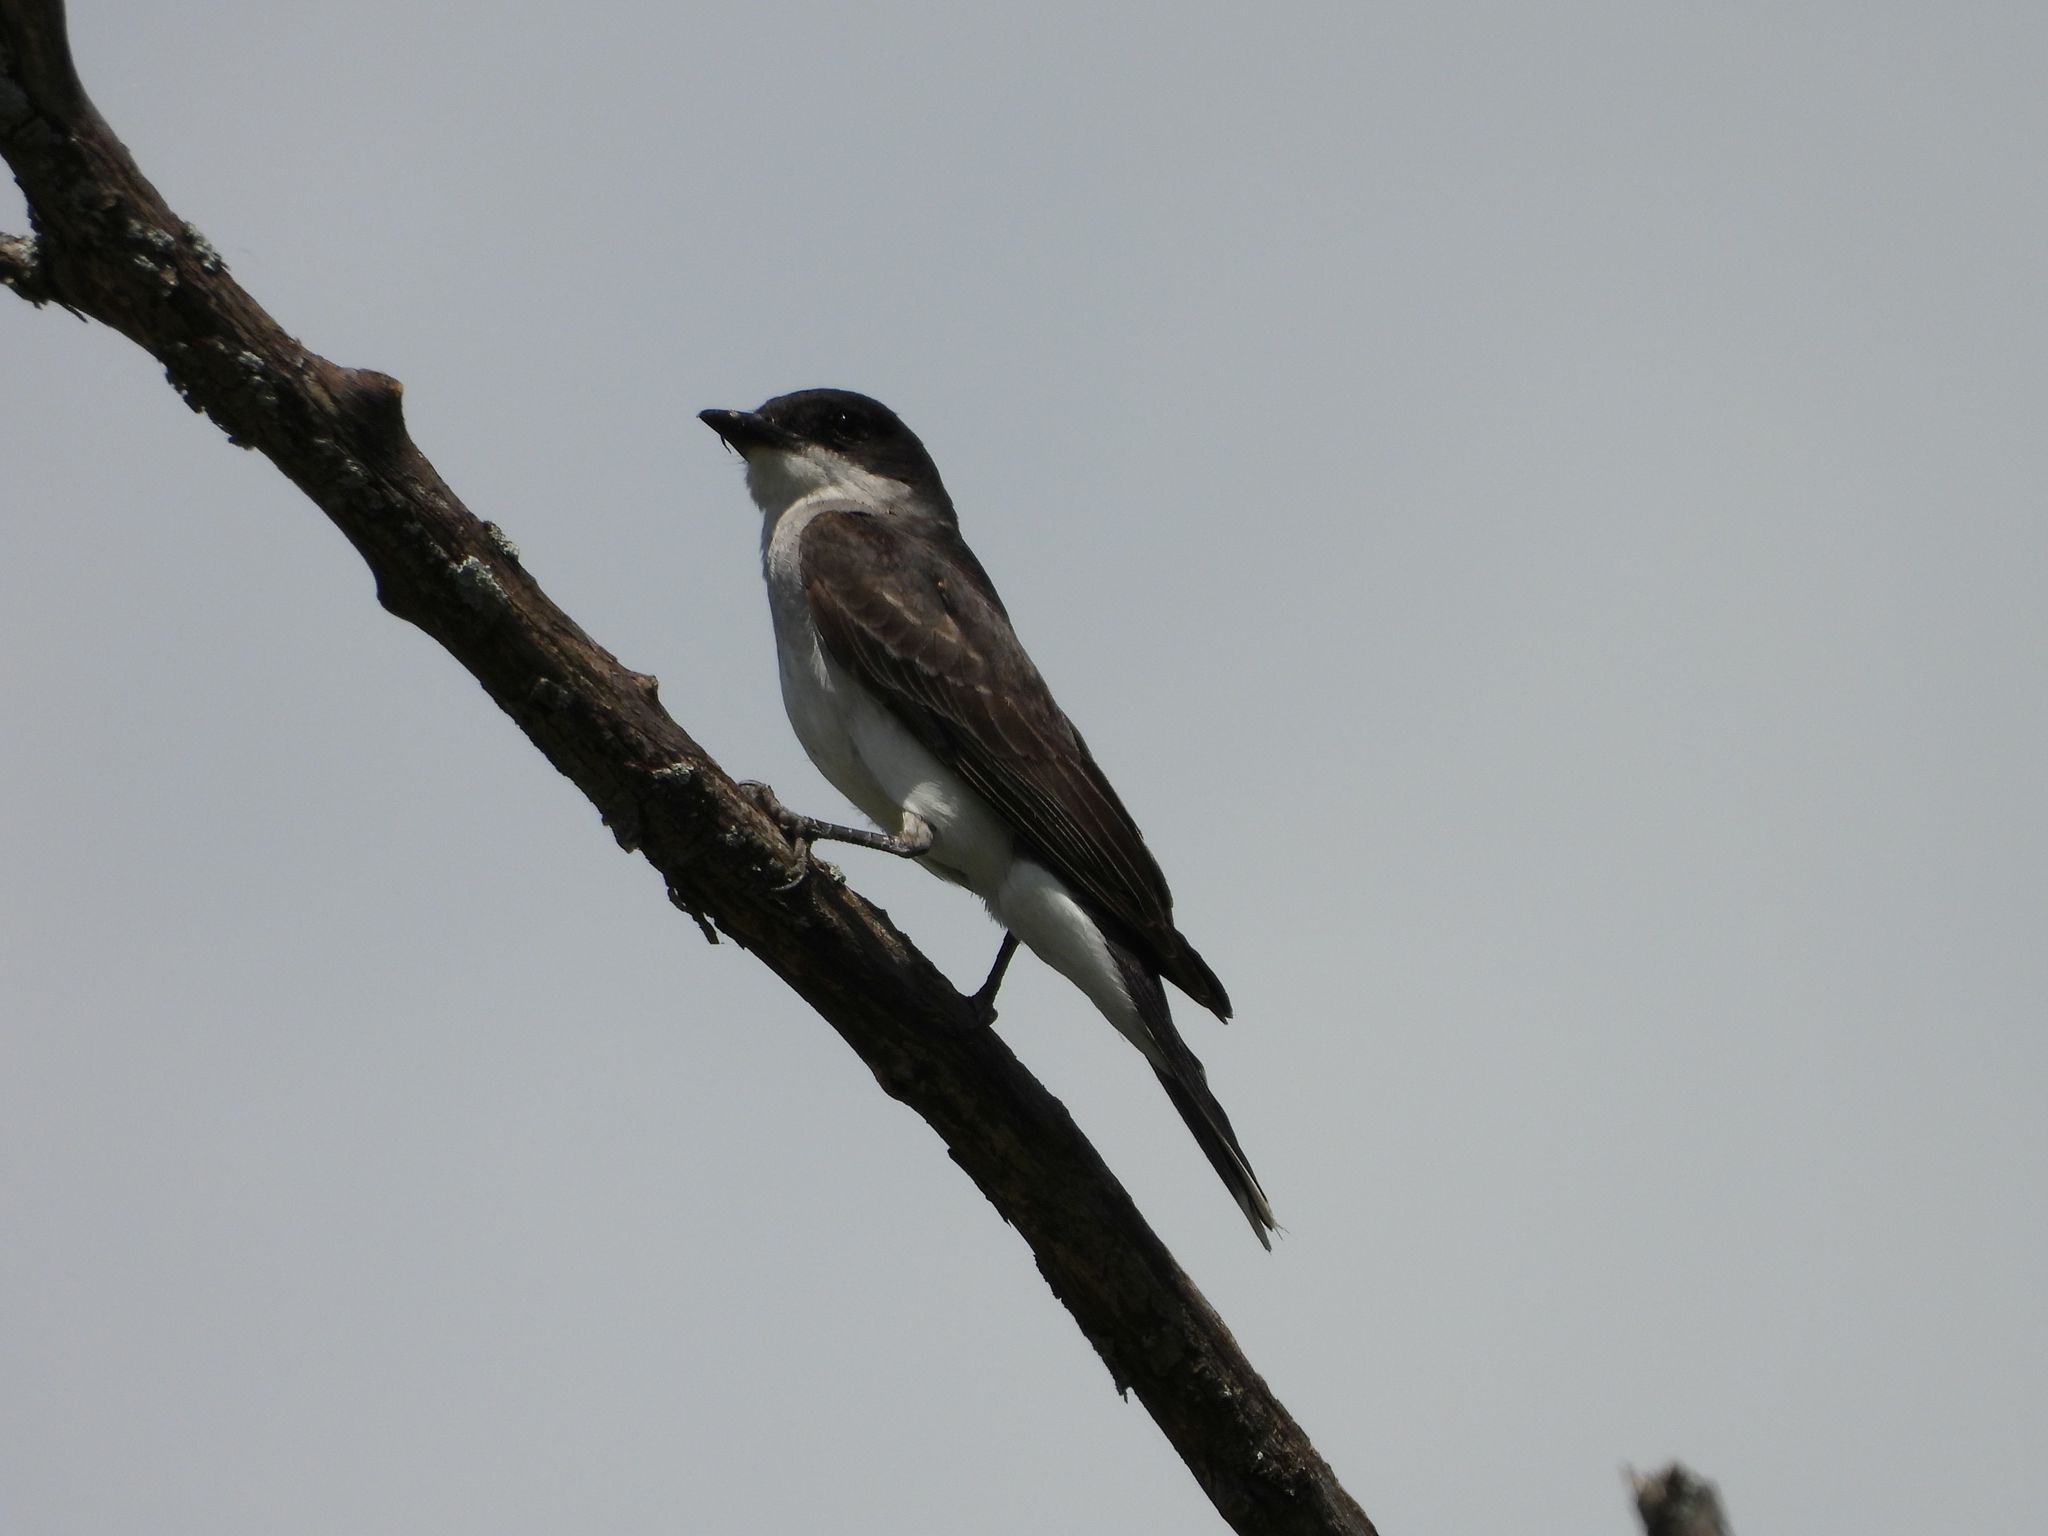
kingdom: Animalia
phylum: Chordata
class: Aves
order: Passeriformes
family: Tyrannidae
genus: Tyrannus
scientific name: Tyrannus tyrannus
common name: Eastern kingbird
